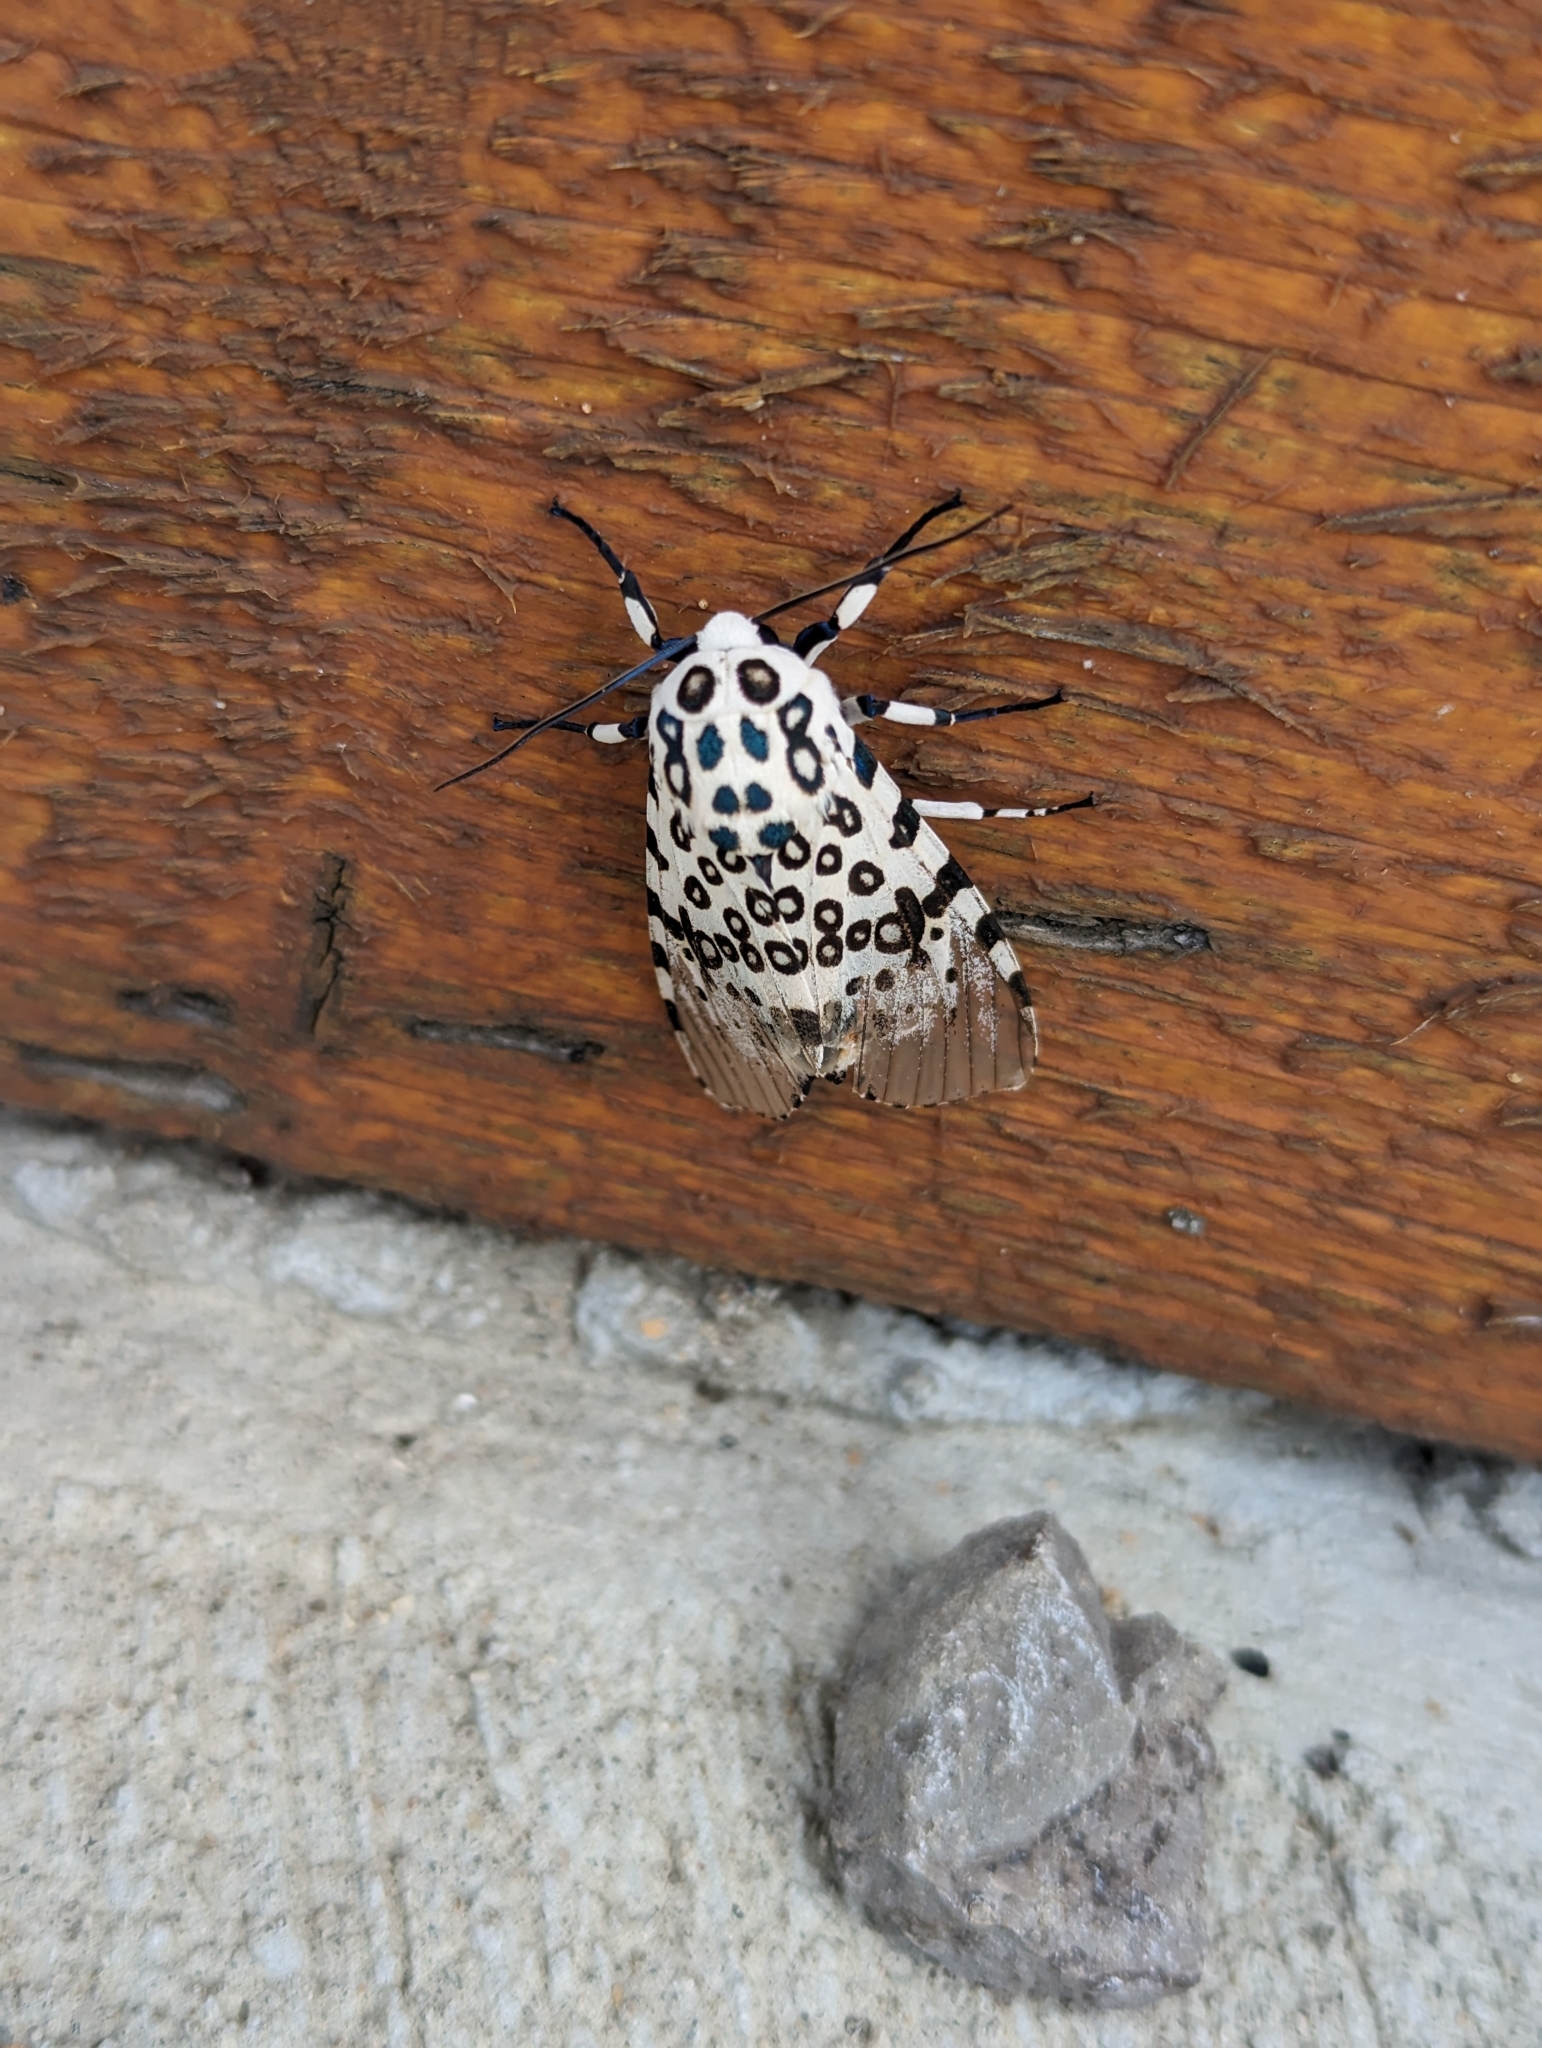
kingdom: Animalia
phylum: Arthropoda
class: Insecta
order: Lepidoptera
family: Erebidae
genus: Hypercompe
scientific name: Hypercompe scribonia
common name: Giant leopard moth
